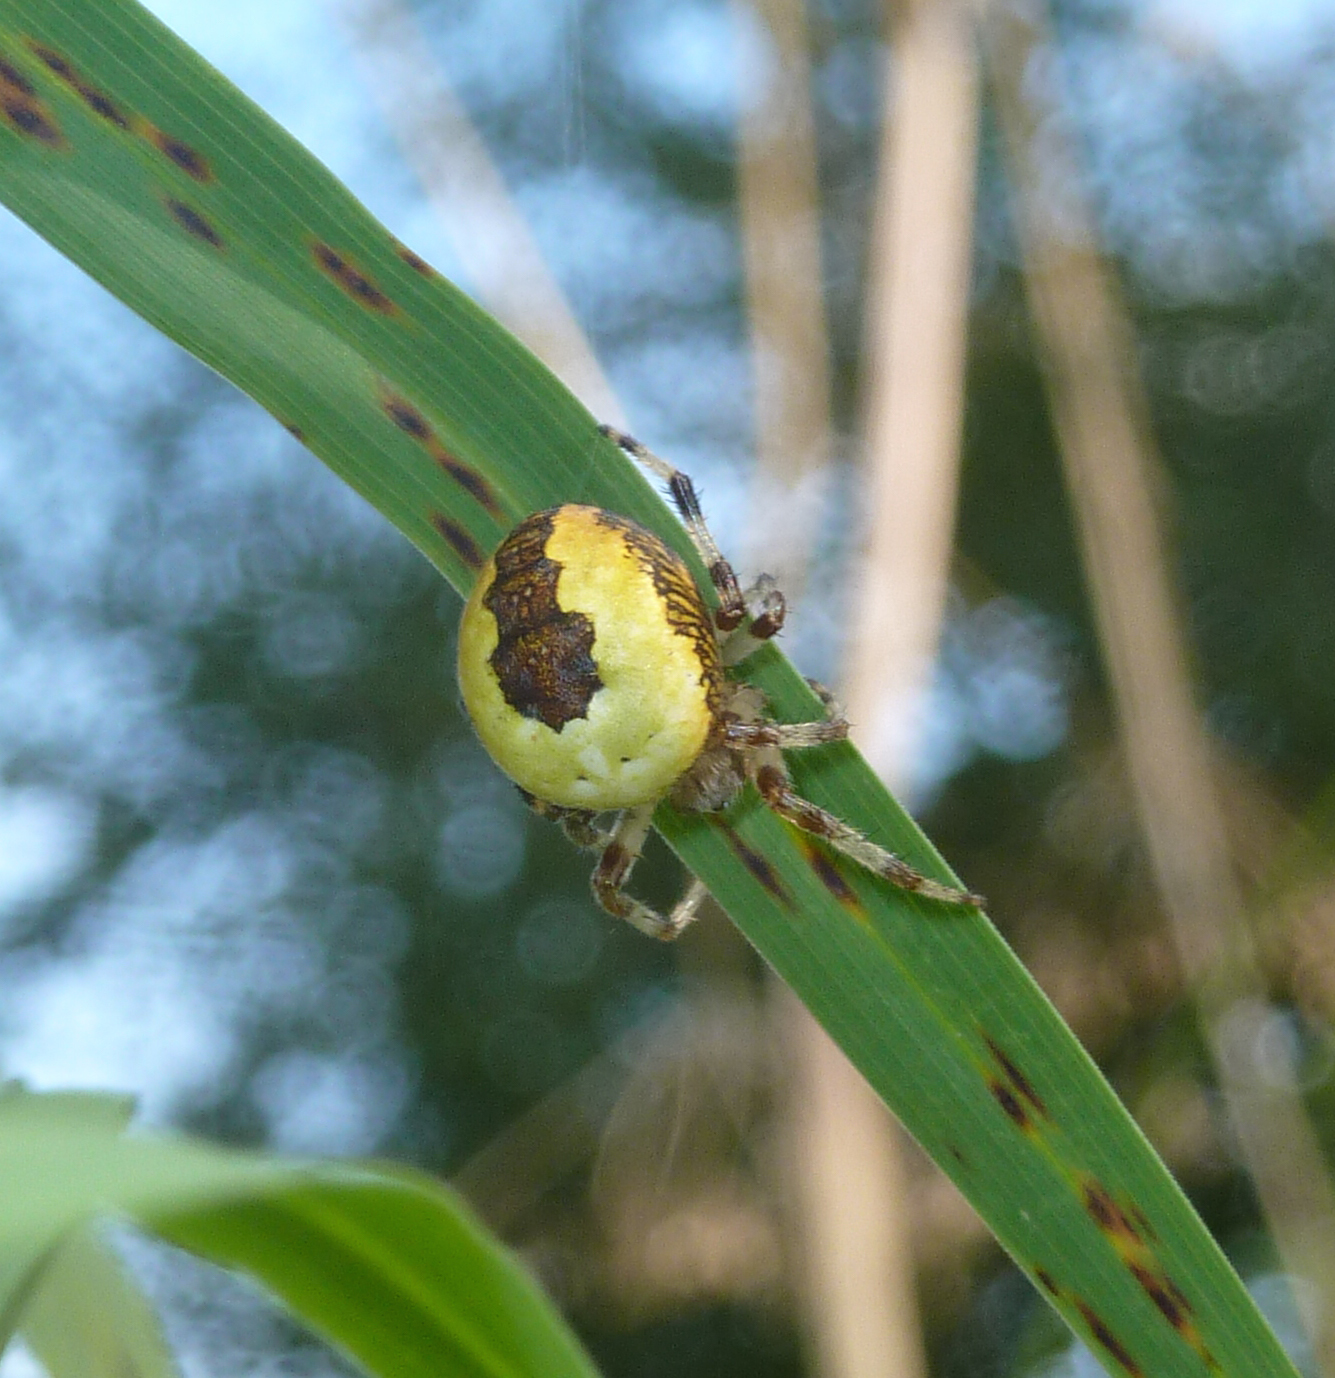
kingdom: Animalia
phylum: Arthropoda
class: Arachnida
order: Araneae
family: Araneidae
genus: Araneus
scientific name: Araneus marmoreus
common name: Marbled orbweaver
